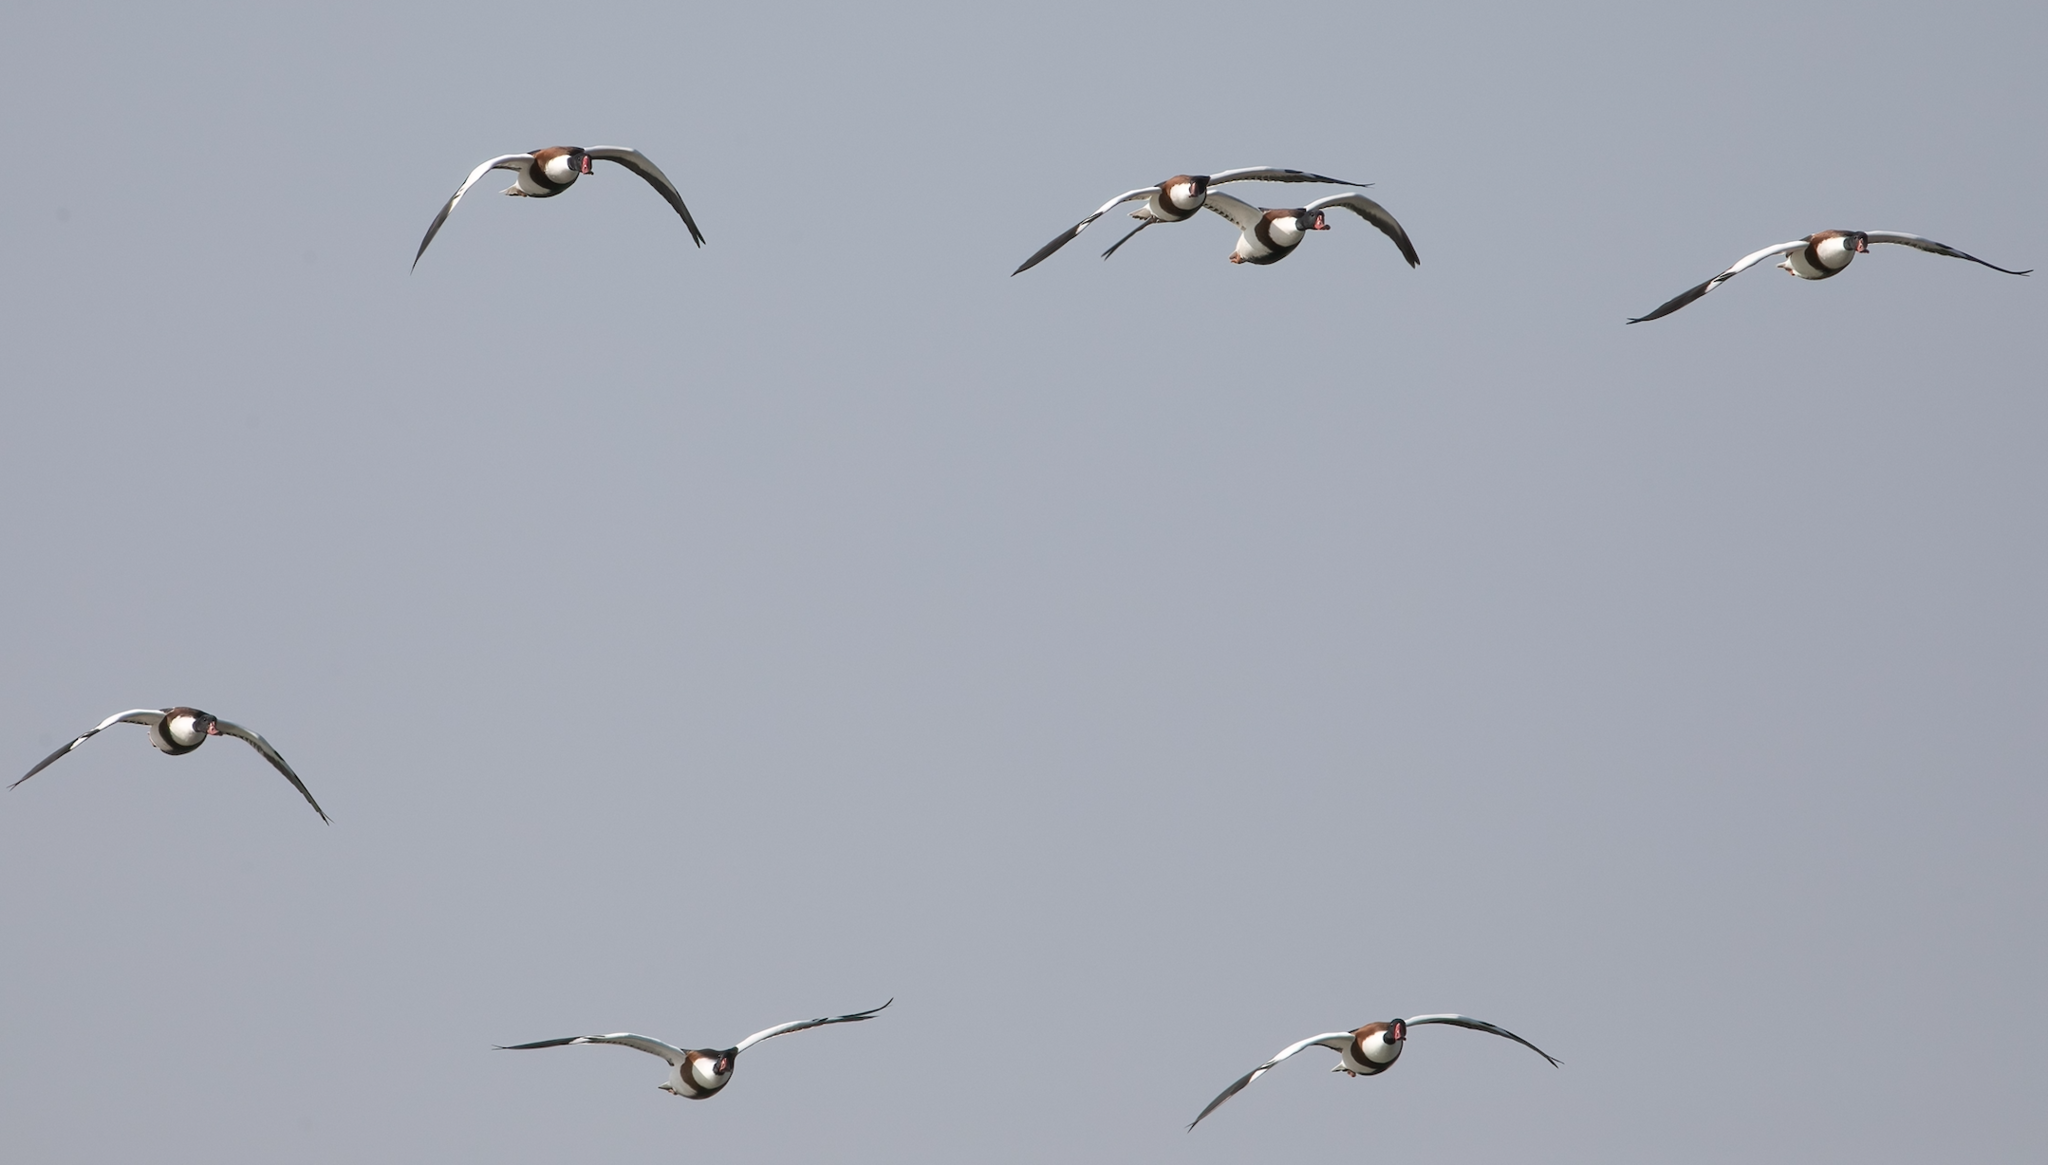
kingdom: Animalia
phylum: Chordata
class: Aves
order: Anseriformes
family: Anatidae
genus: Tadorna
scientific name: Tadorna tadorna
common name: Common shelduck
